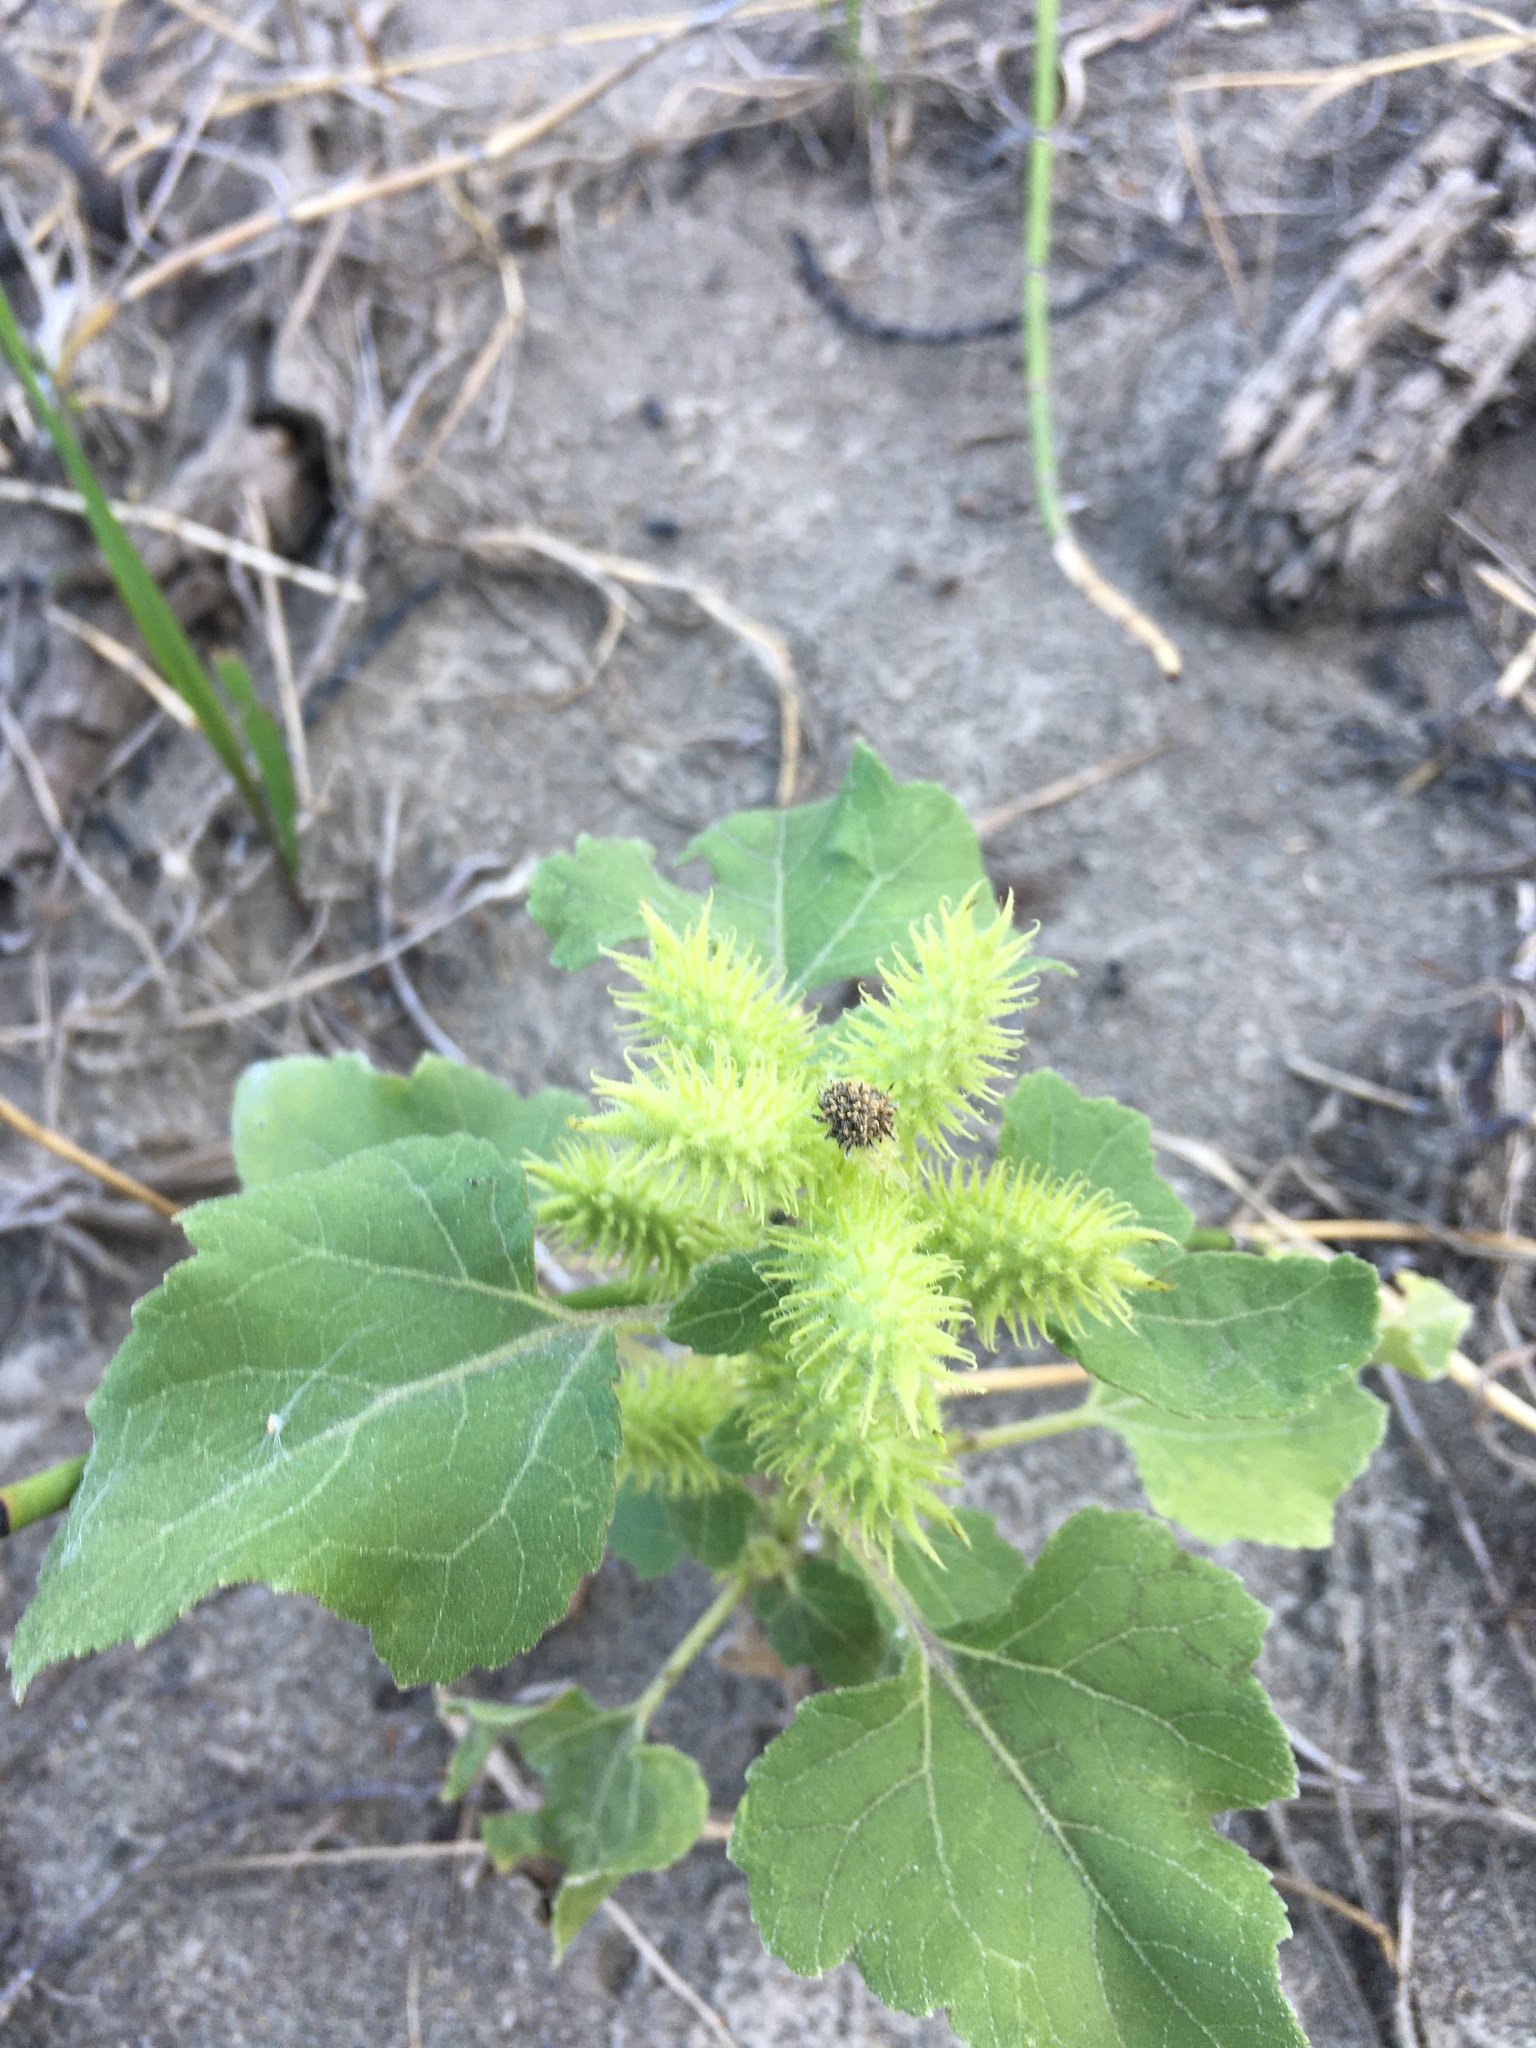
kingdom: Plantae
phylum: Tracheophyta
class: Magnoliopsida
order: Asterales
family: Asteraceae
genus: Xanthium
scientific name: Xanthium strumarium
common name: Rough cocklebur
